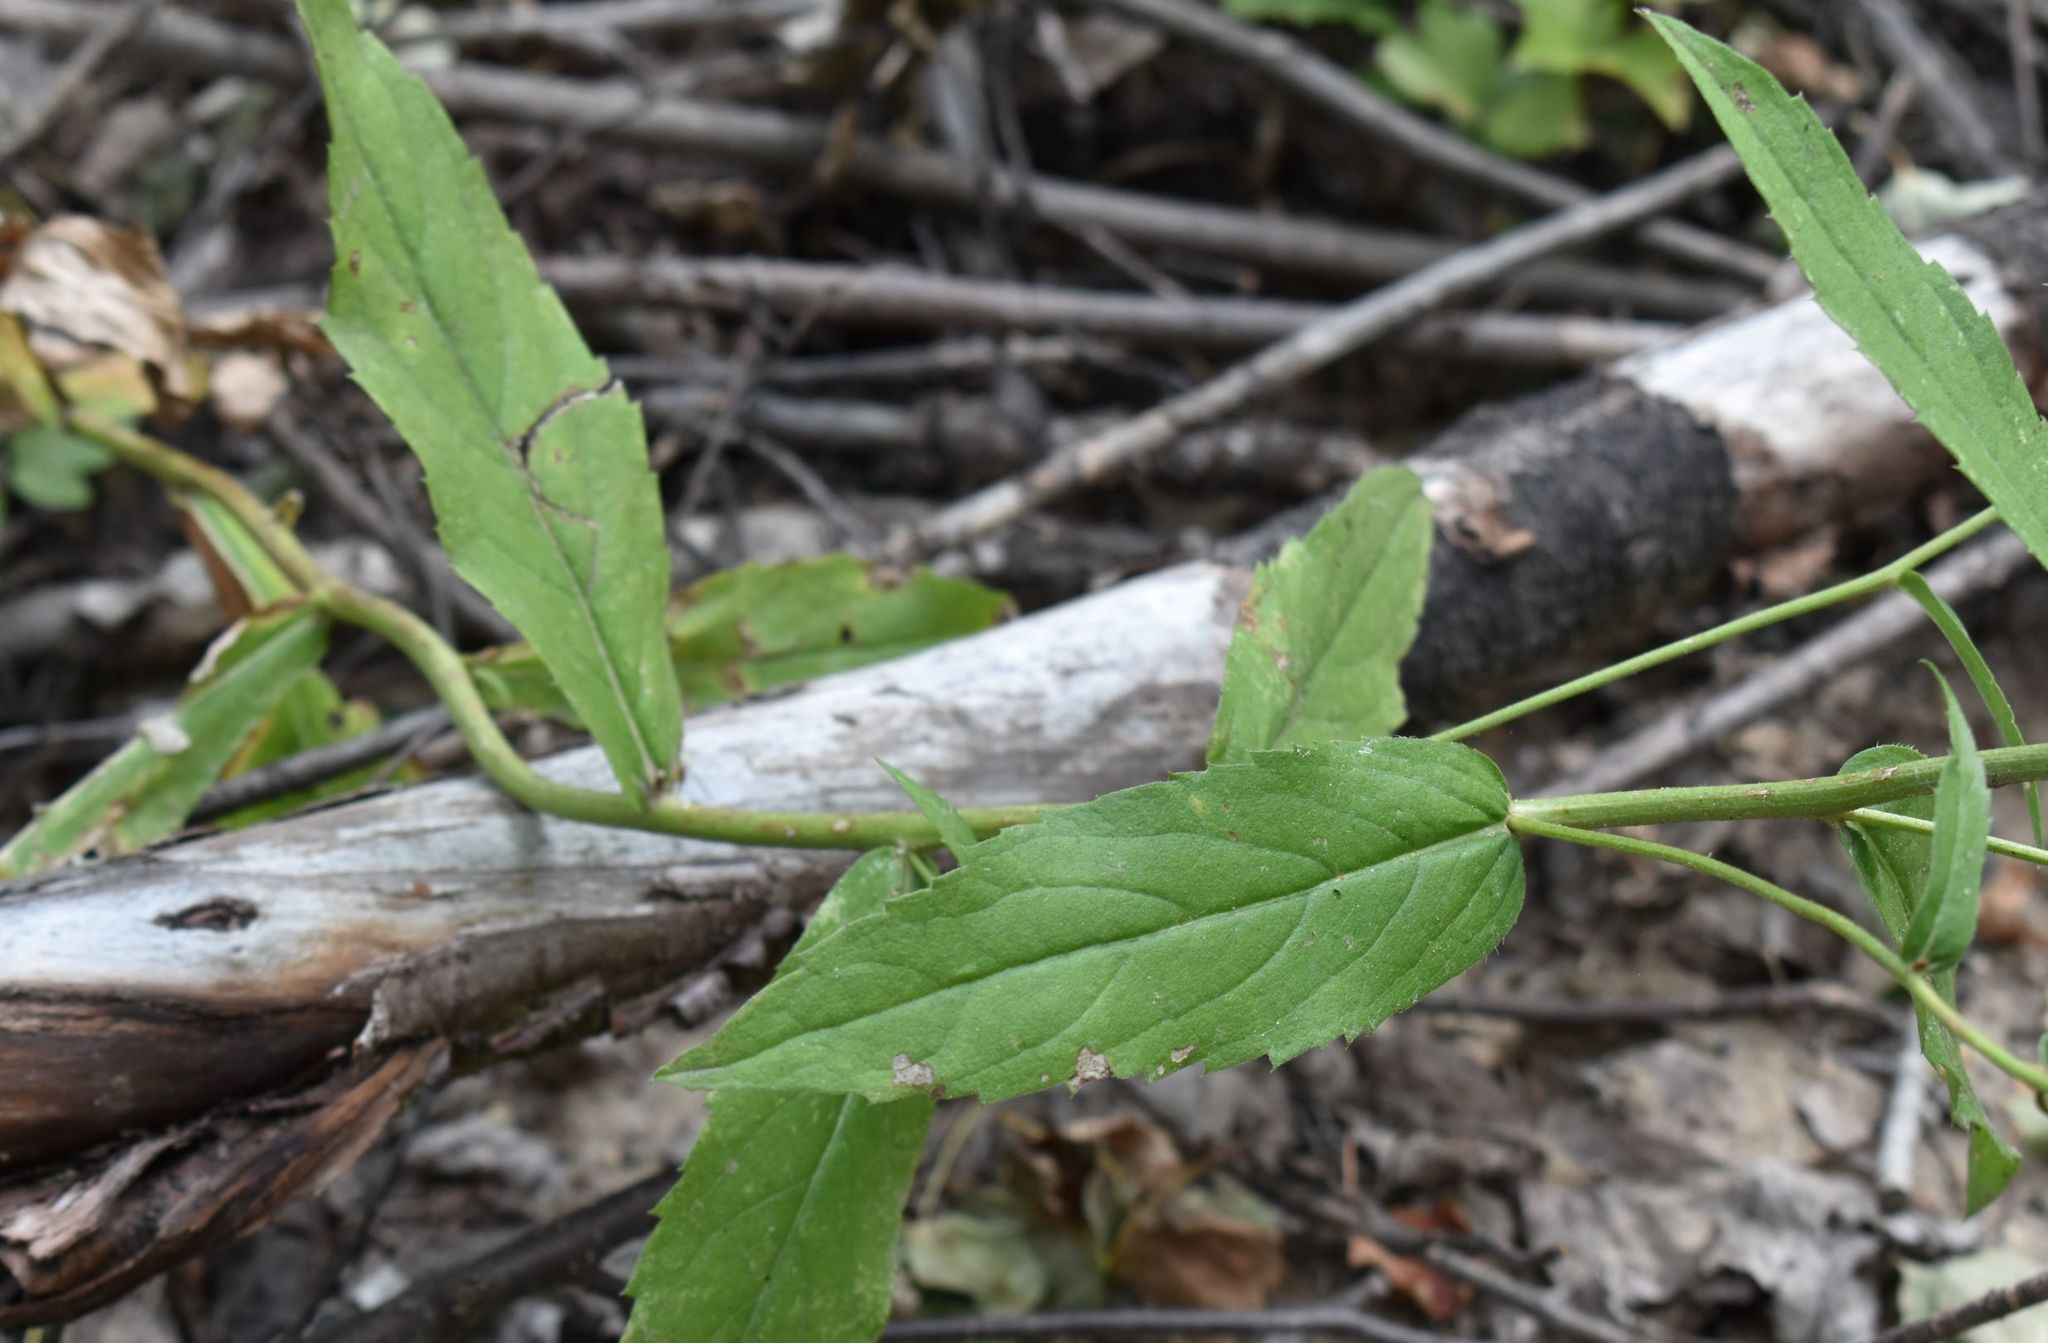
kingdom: Plantae
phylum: Tracheophyta
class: Magnoliopsida
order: Asterales
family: Asteraceae
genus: Eurybia
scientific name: Eurybia conspicua
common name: Showy aster
